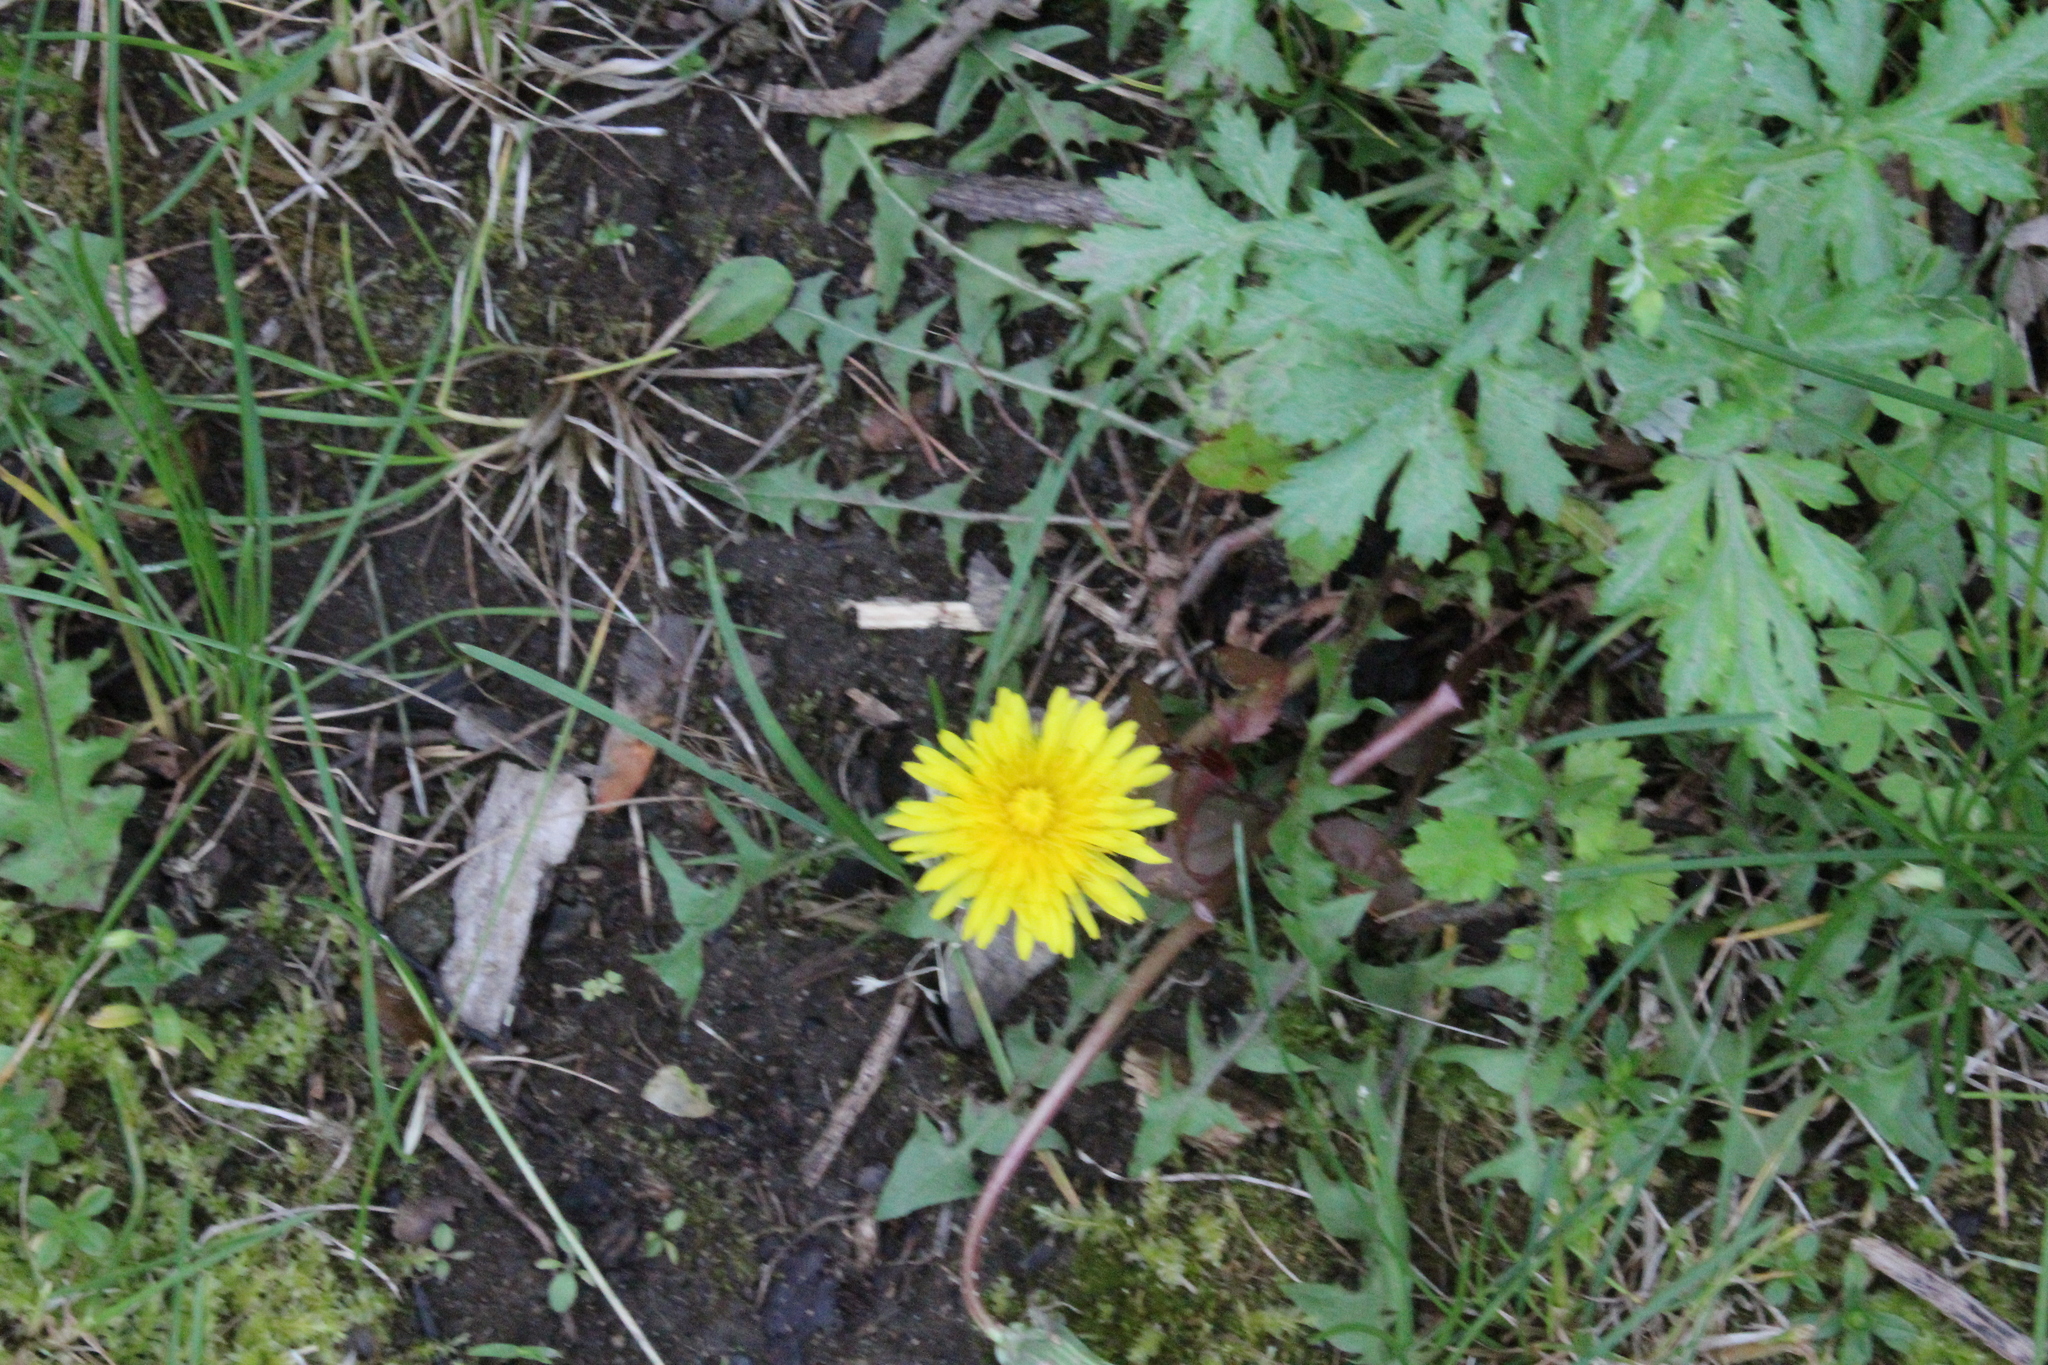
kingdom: Plantae
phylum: Tracheophyta
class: Magnoliopsida
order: Asterales
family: Asteraceae
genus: Taraxacum
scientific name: Taraxacum
